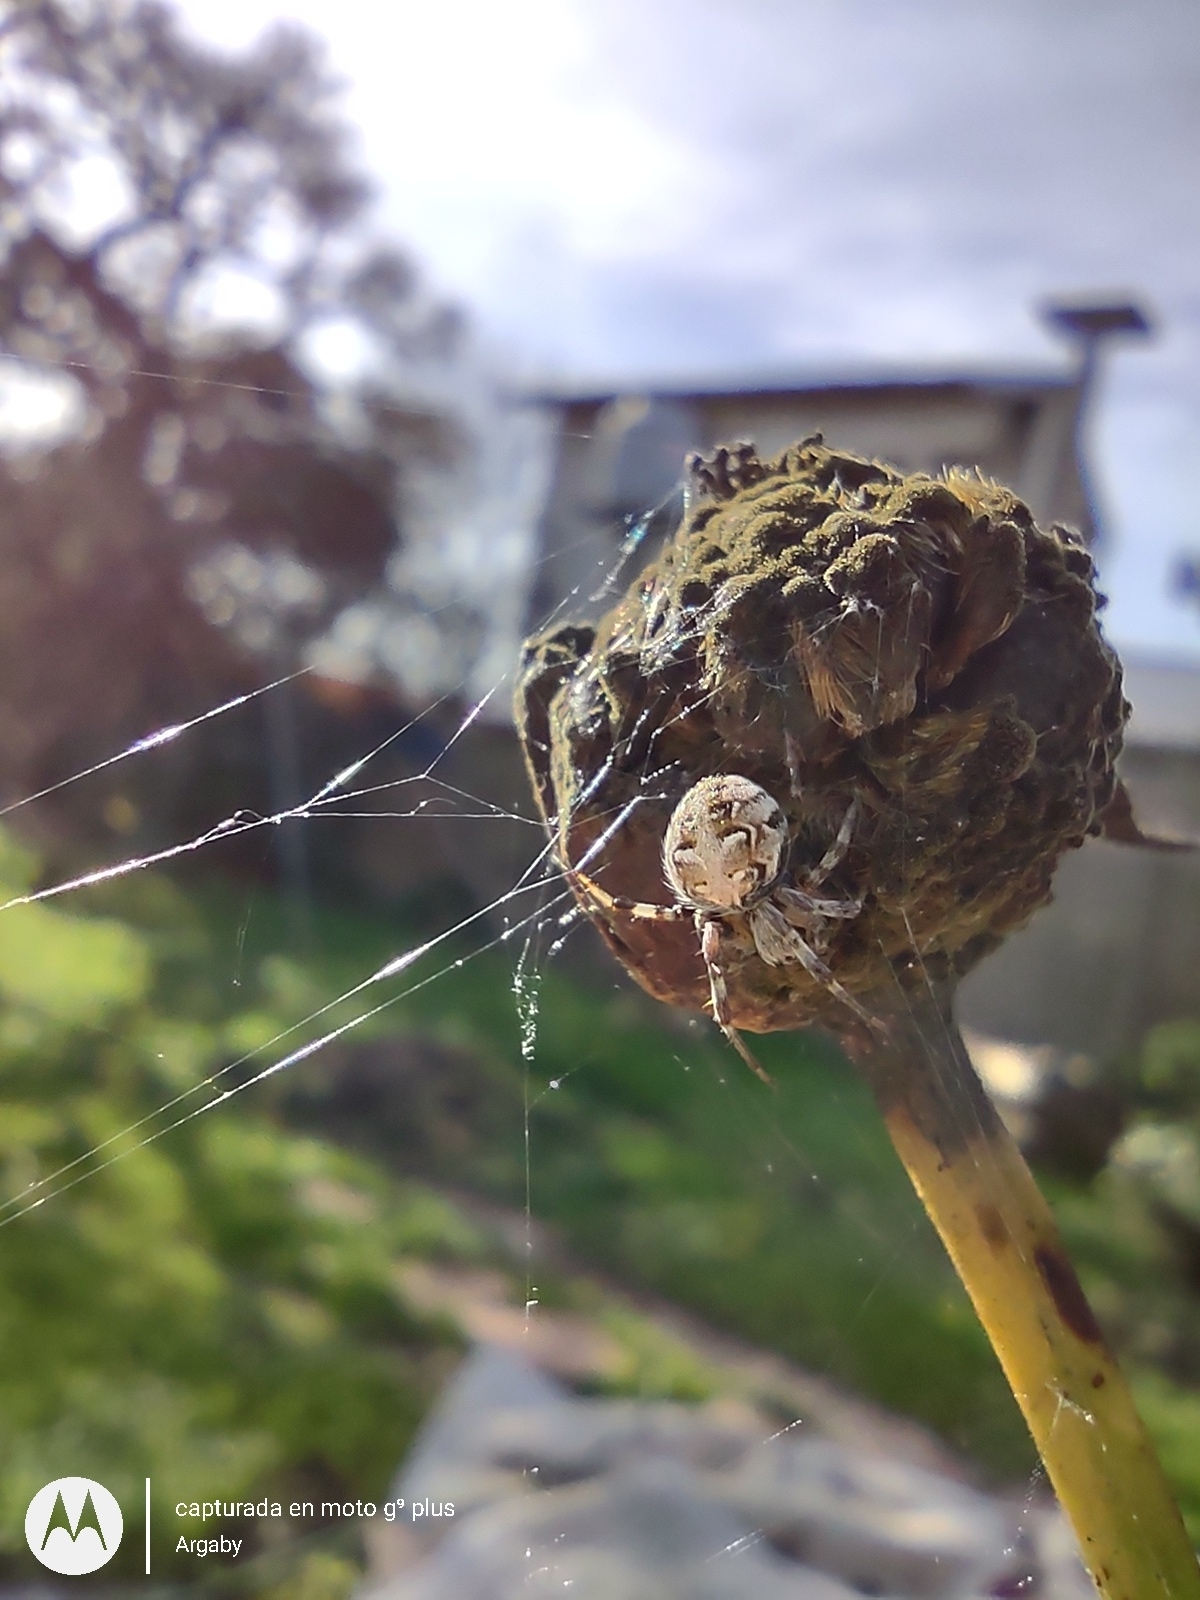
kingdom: Animalia
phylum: Arthropoda
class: Arachnida
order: Araneae
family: Araneidae
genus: Metepeira
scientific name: Metepeira
